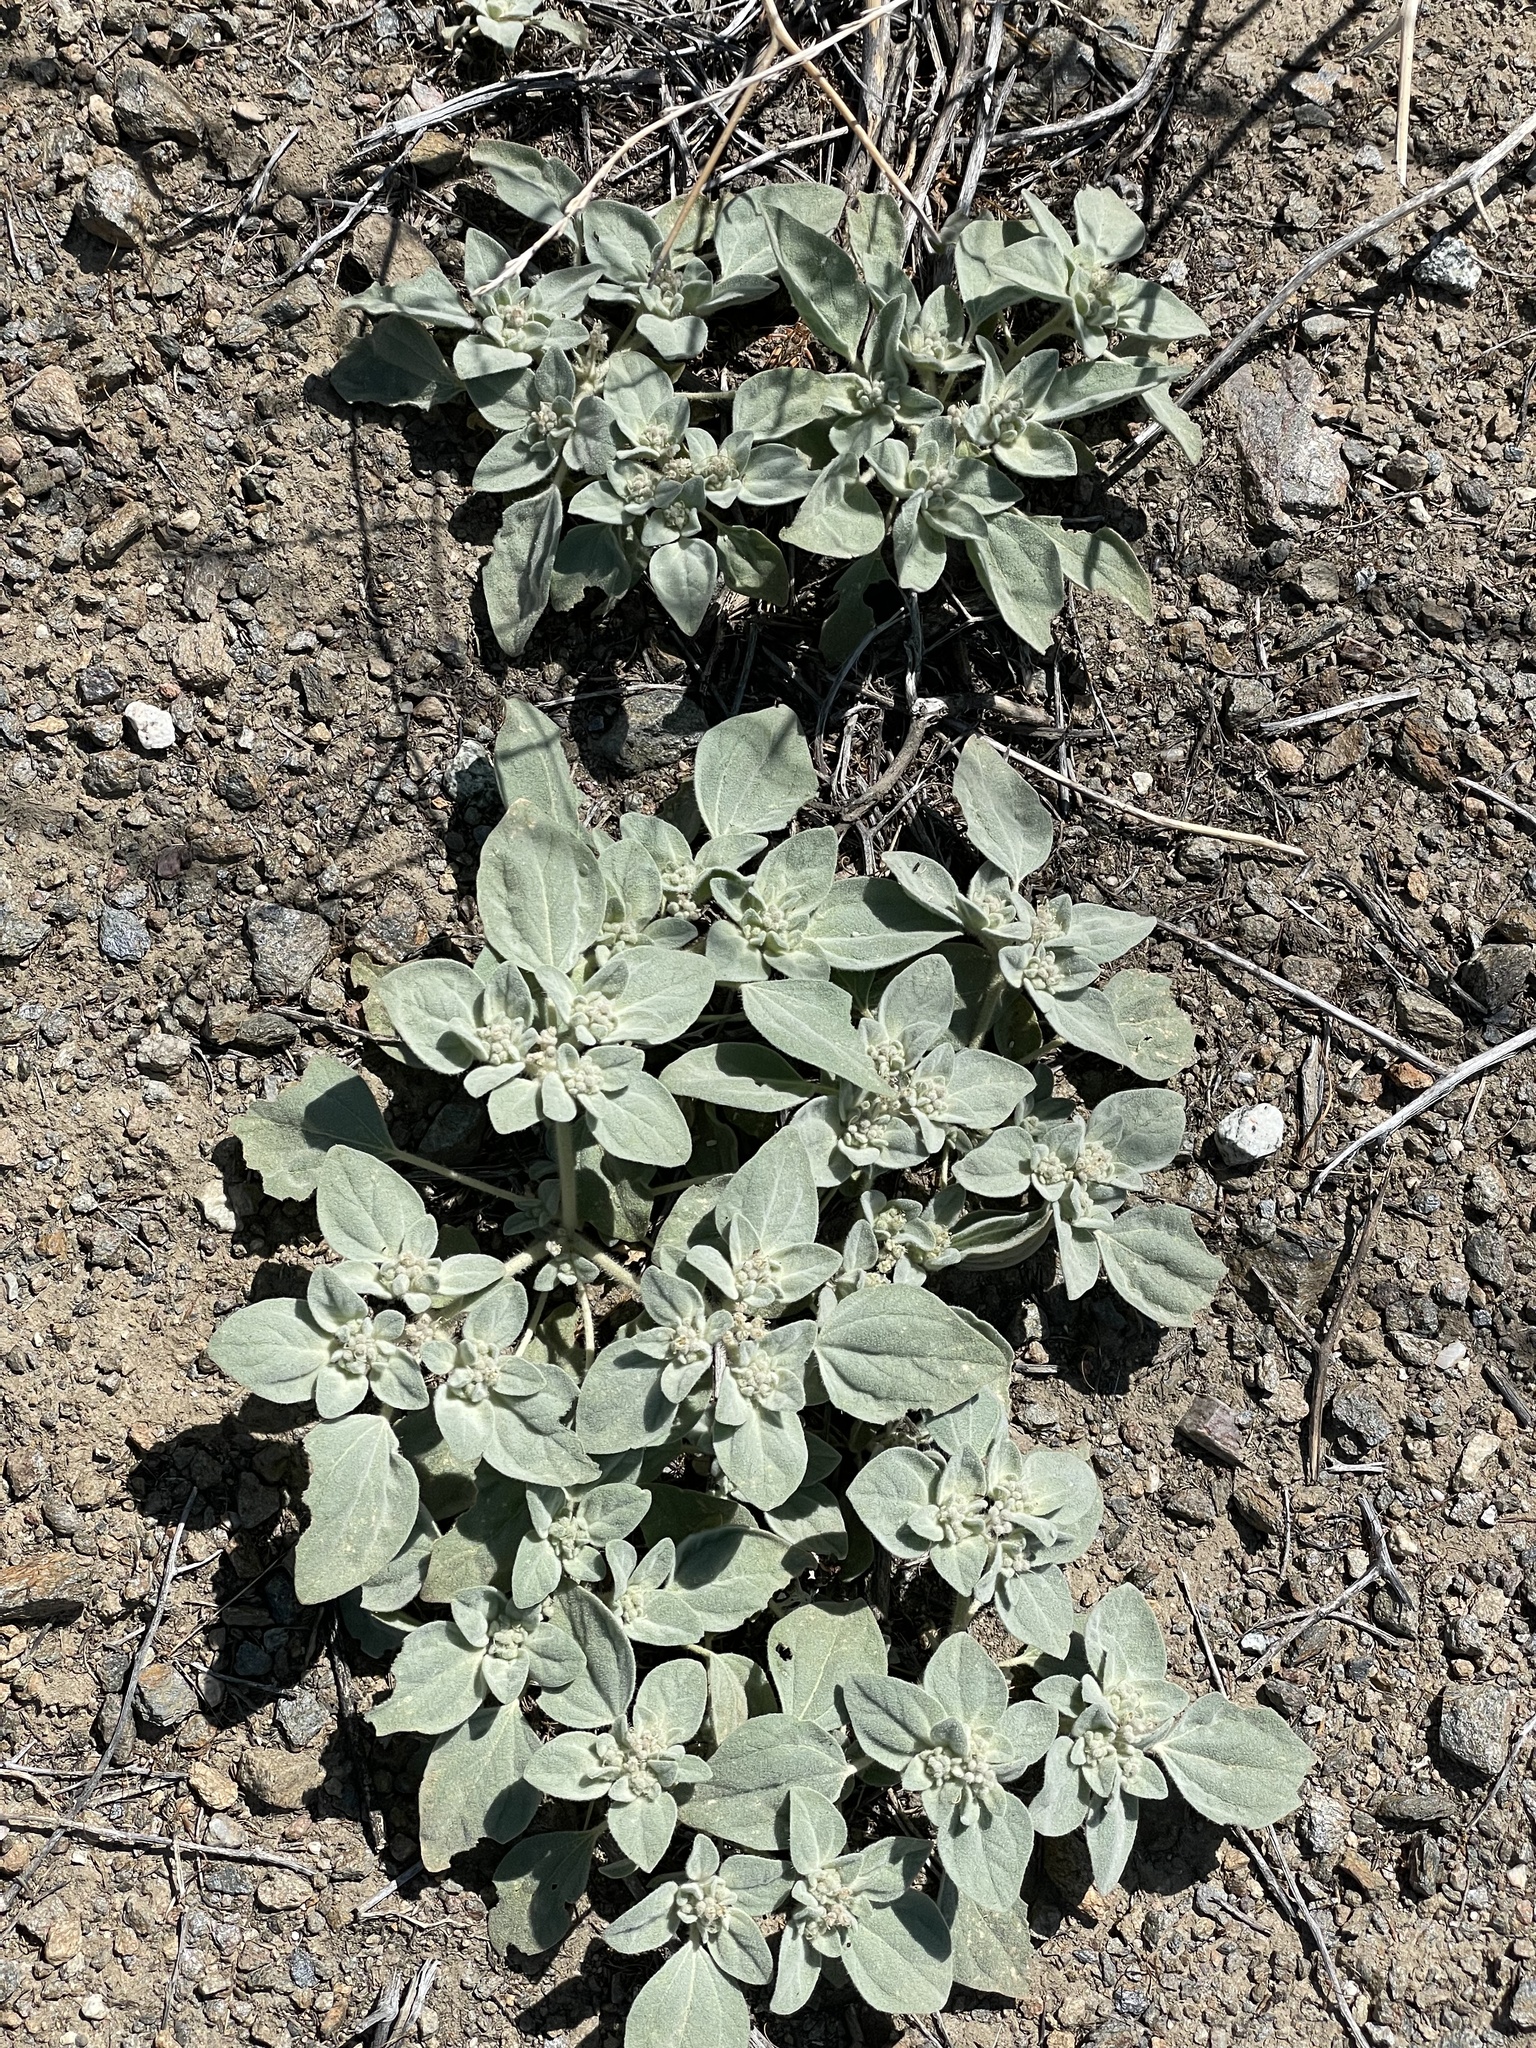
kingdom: Plantae
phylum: Tracheophyta
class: Magnoliopsida
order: Malpighiales
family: Euphorbiaceae
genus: Croton
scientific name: Croton setiger
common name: Dove weed
